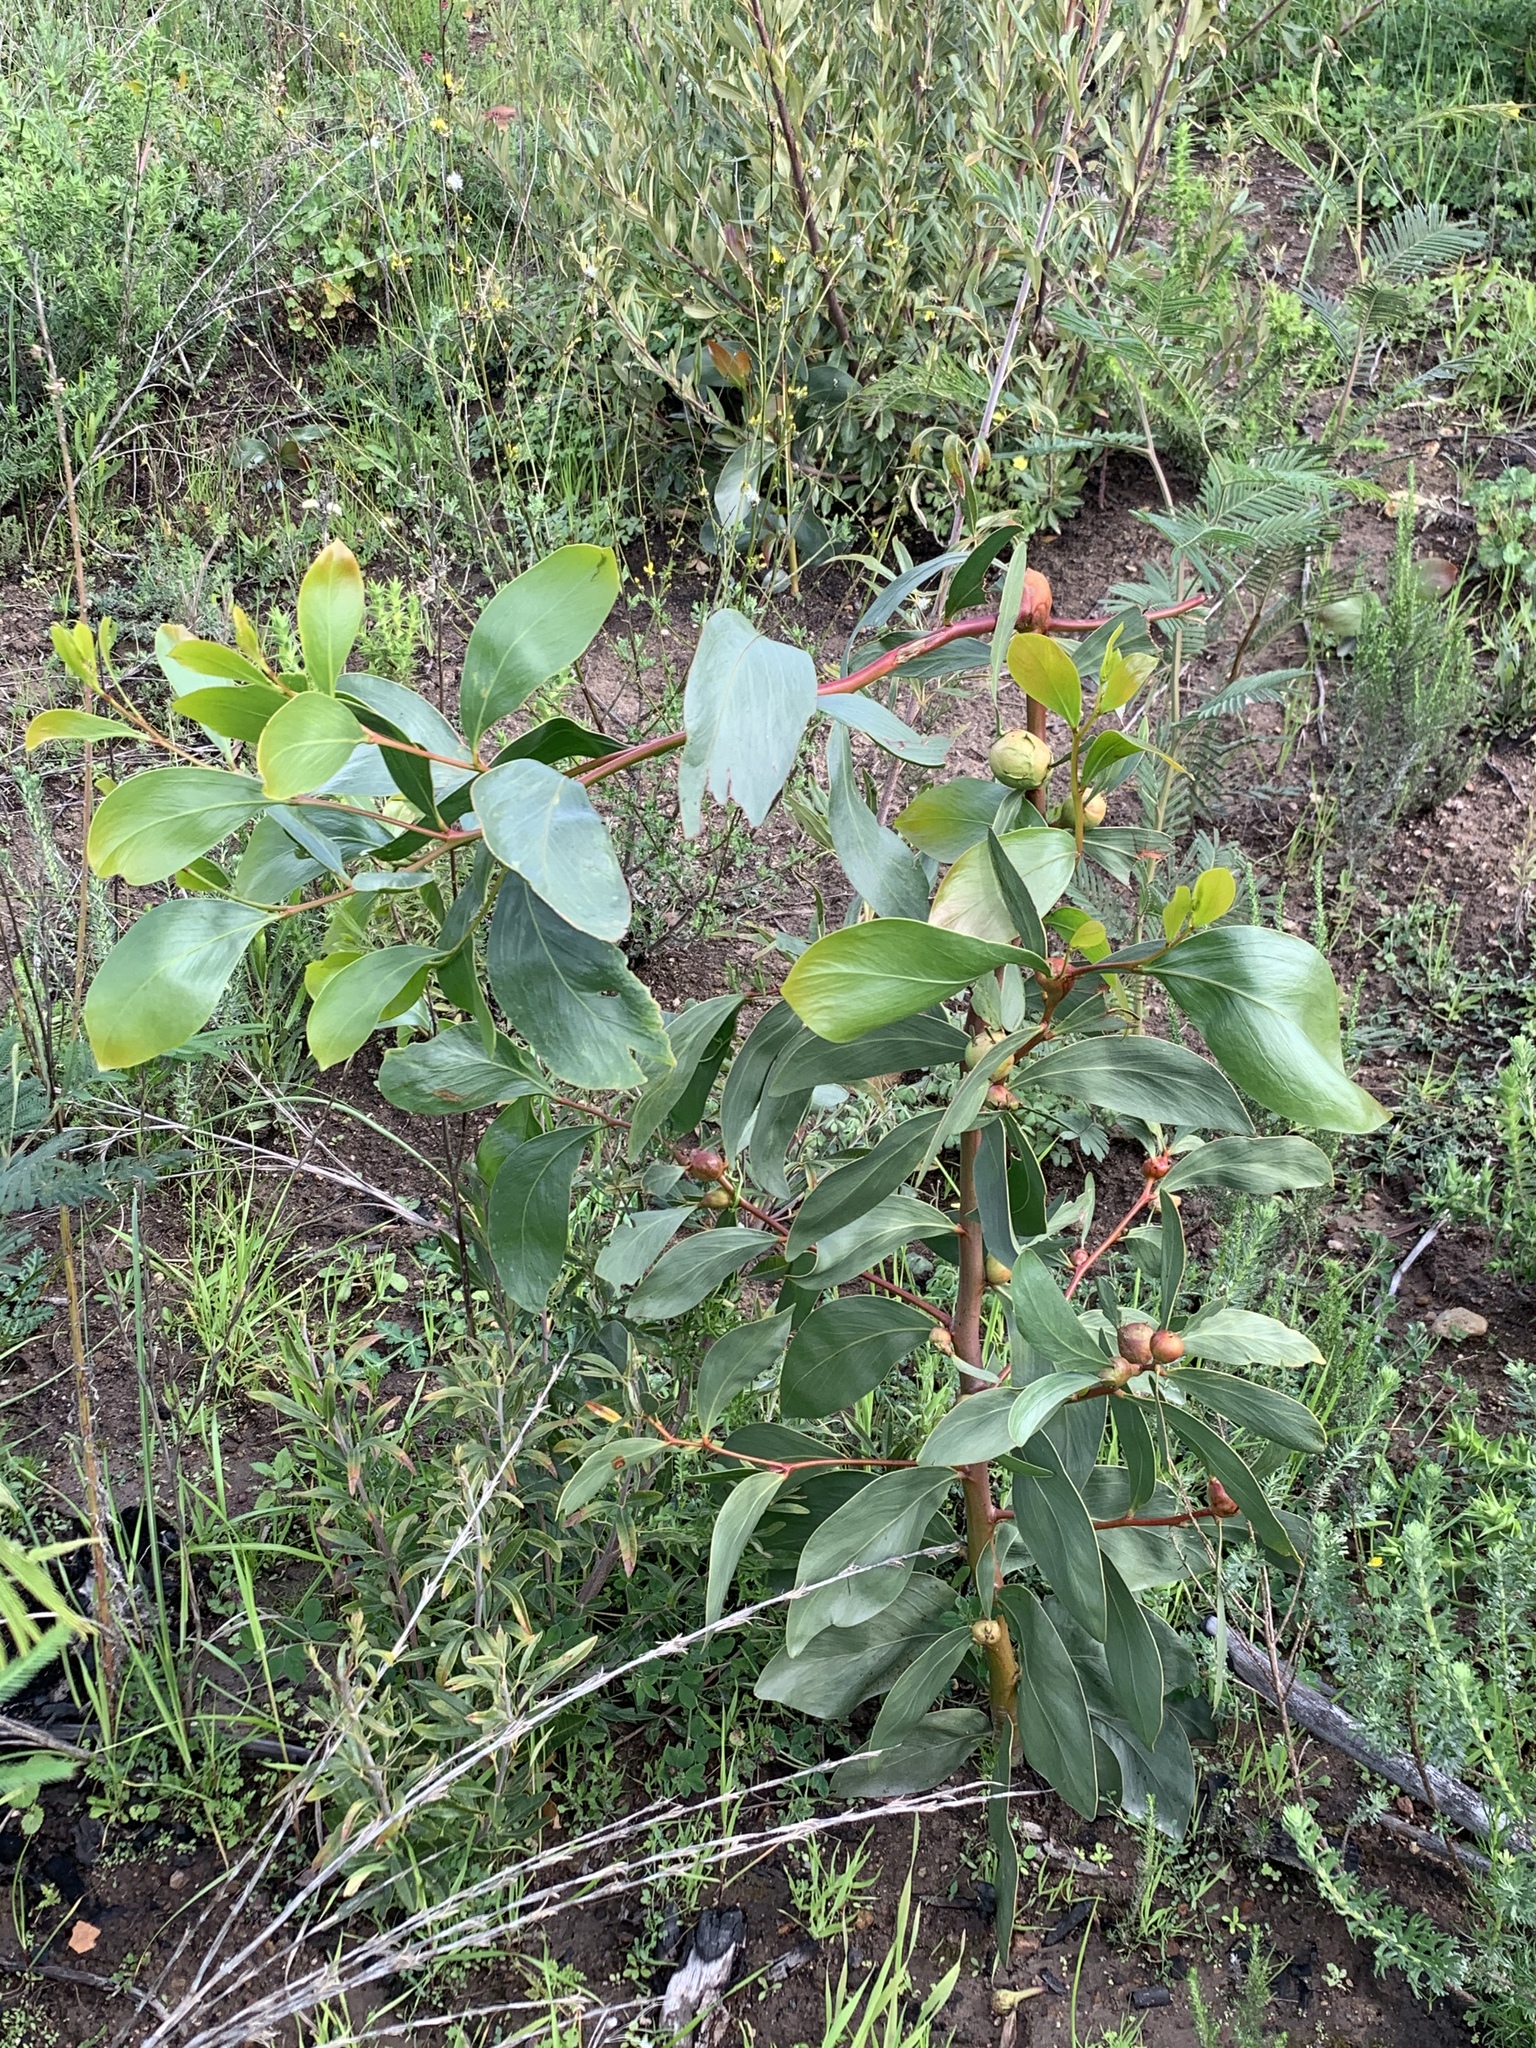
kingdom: Plantae
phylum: Tracheophyta
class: Magnoliopsida
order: Fabales
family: Fabaceae
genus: Acacia
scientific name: Acacia pycnantha
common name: Golden wattle
